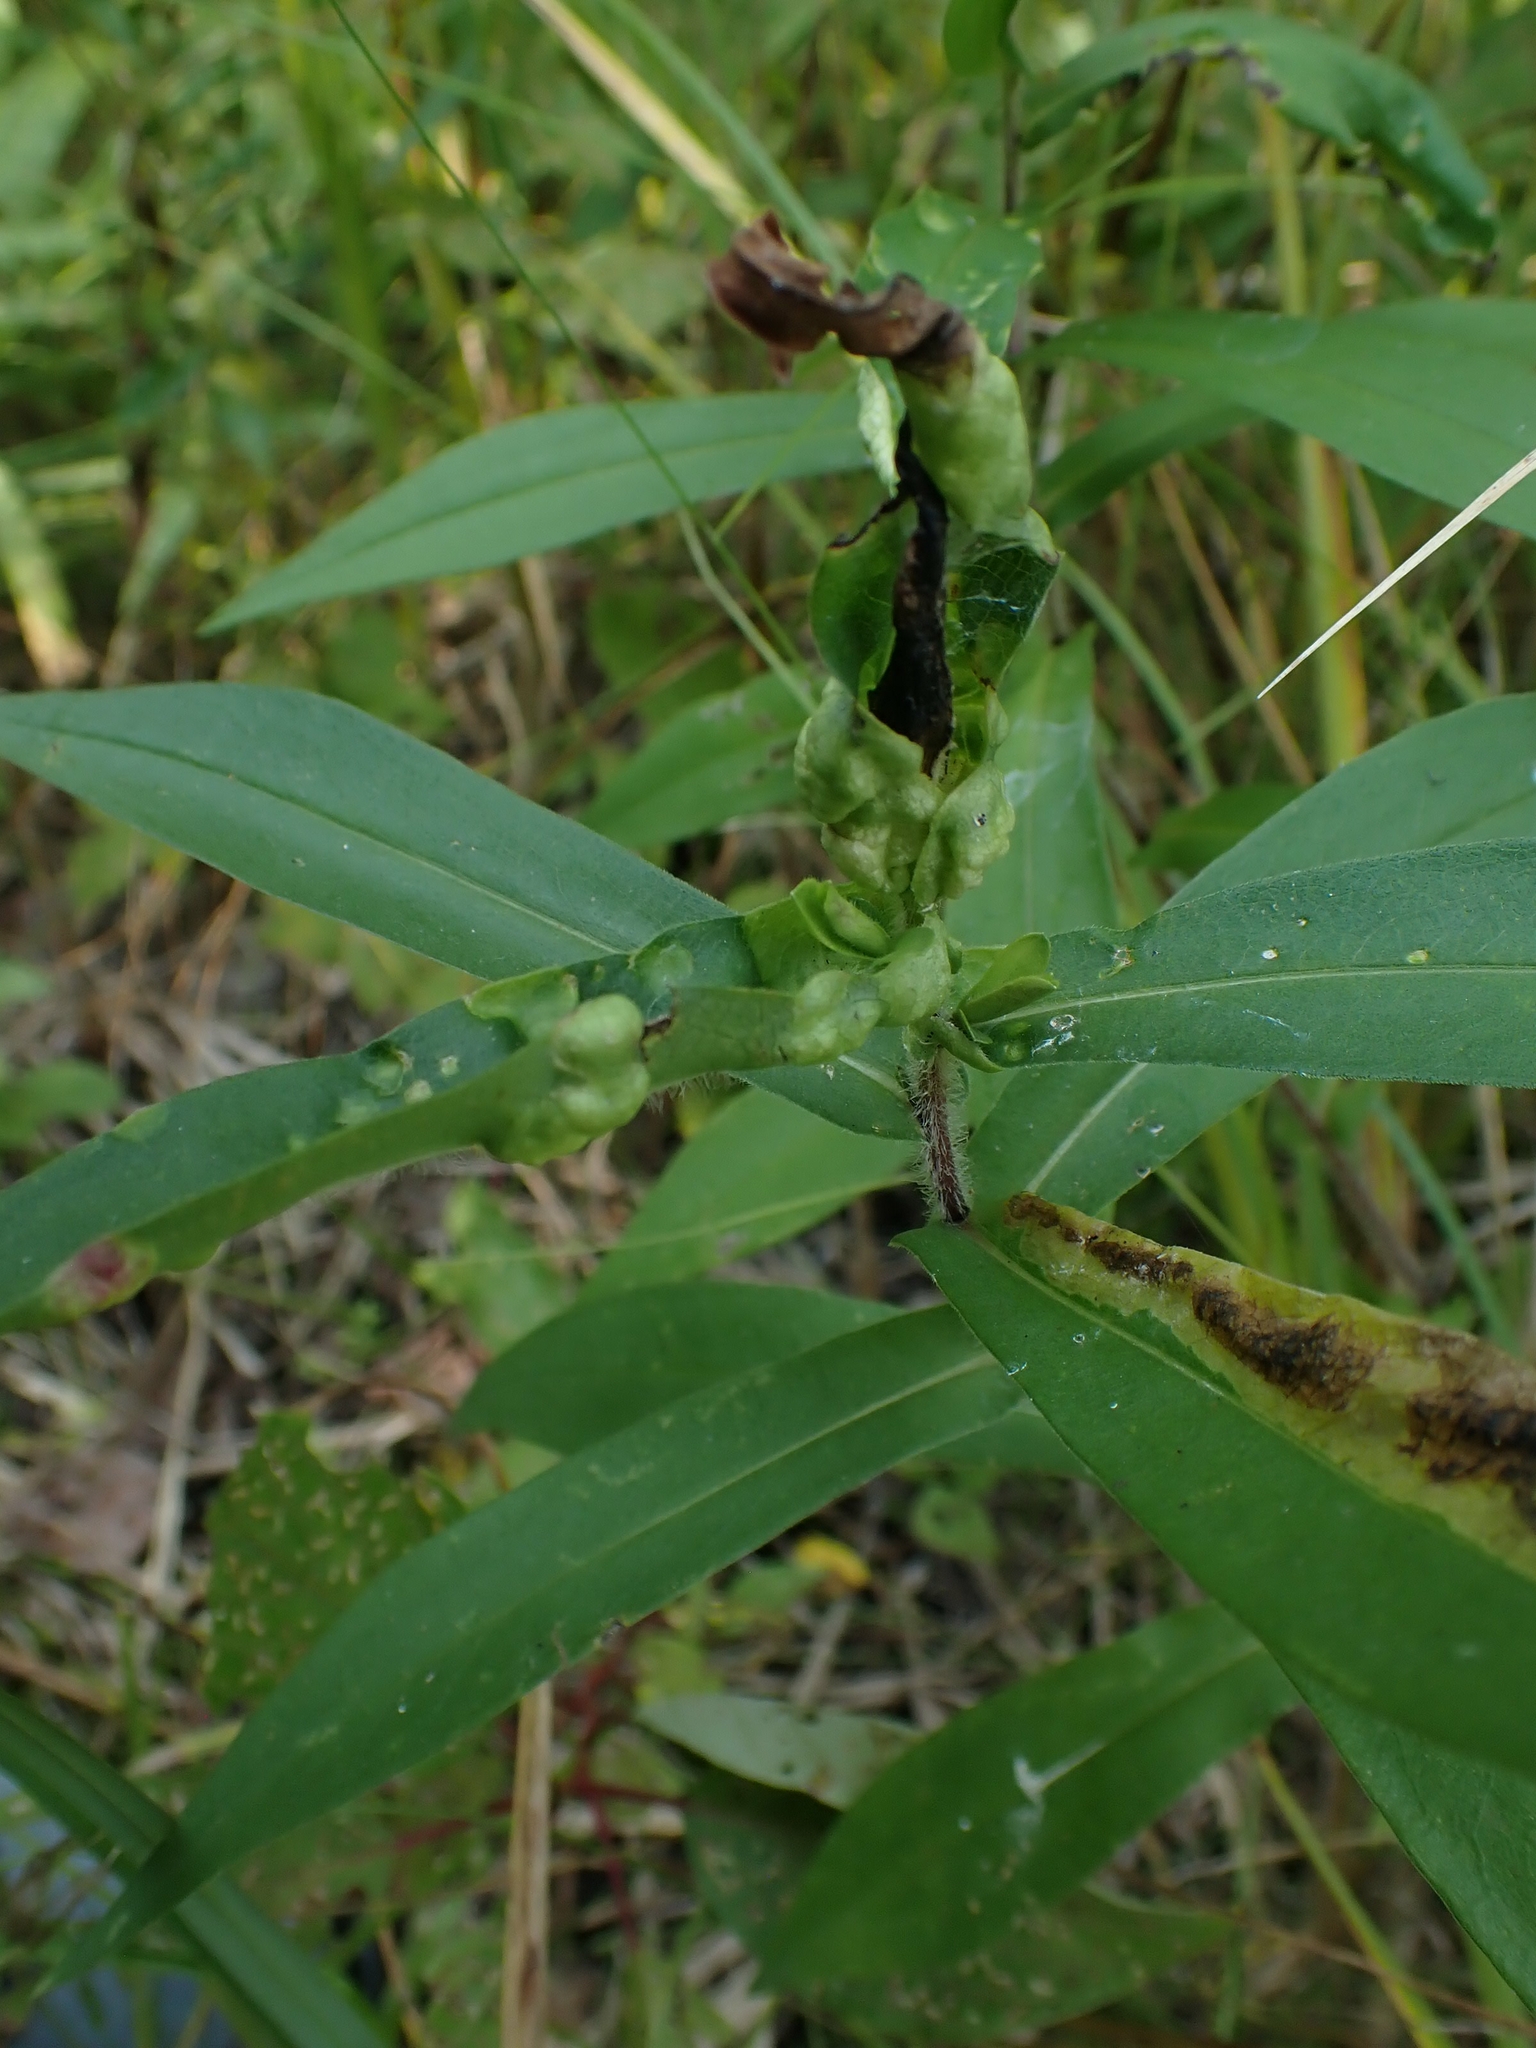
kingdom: Plantae
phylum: Tracheophyta
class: Magnoliopsida
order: Asterales
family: Asteraceae
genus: Symphyotrichum
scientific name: Symphyotrichum puniceum
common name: Bog aster
